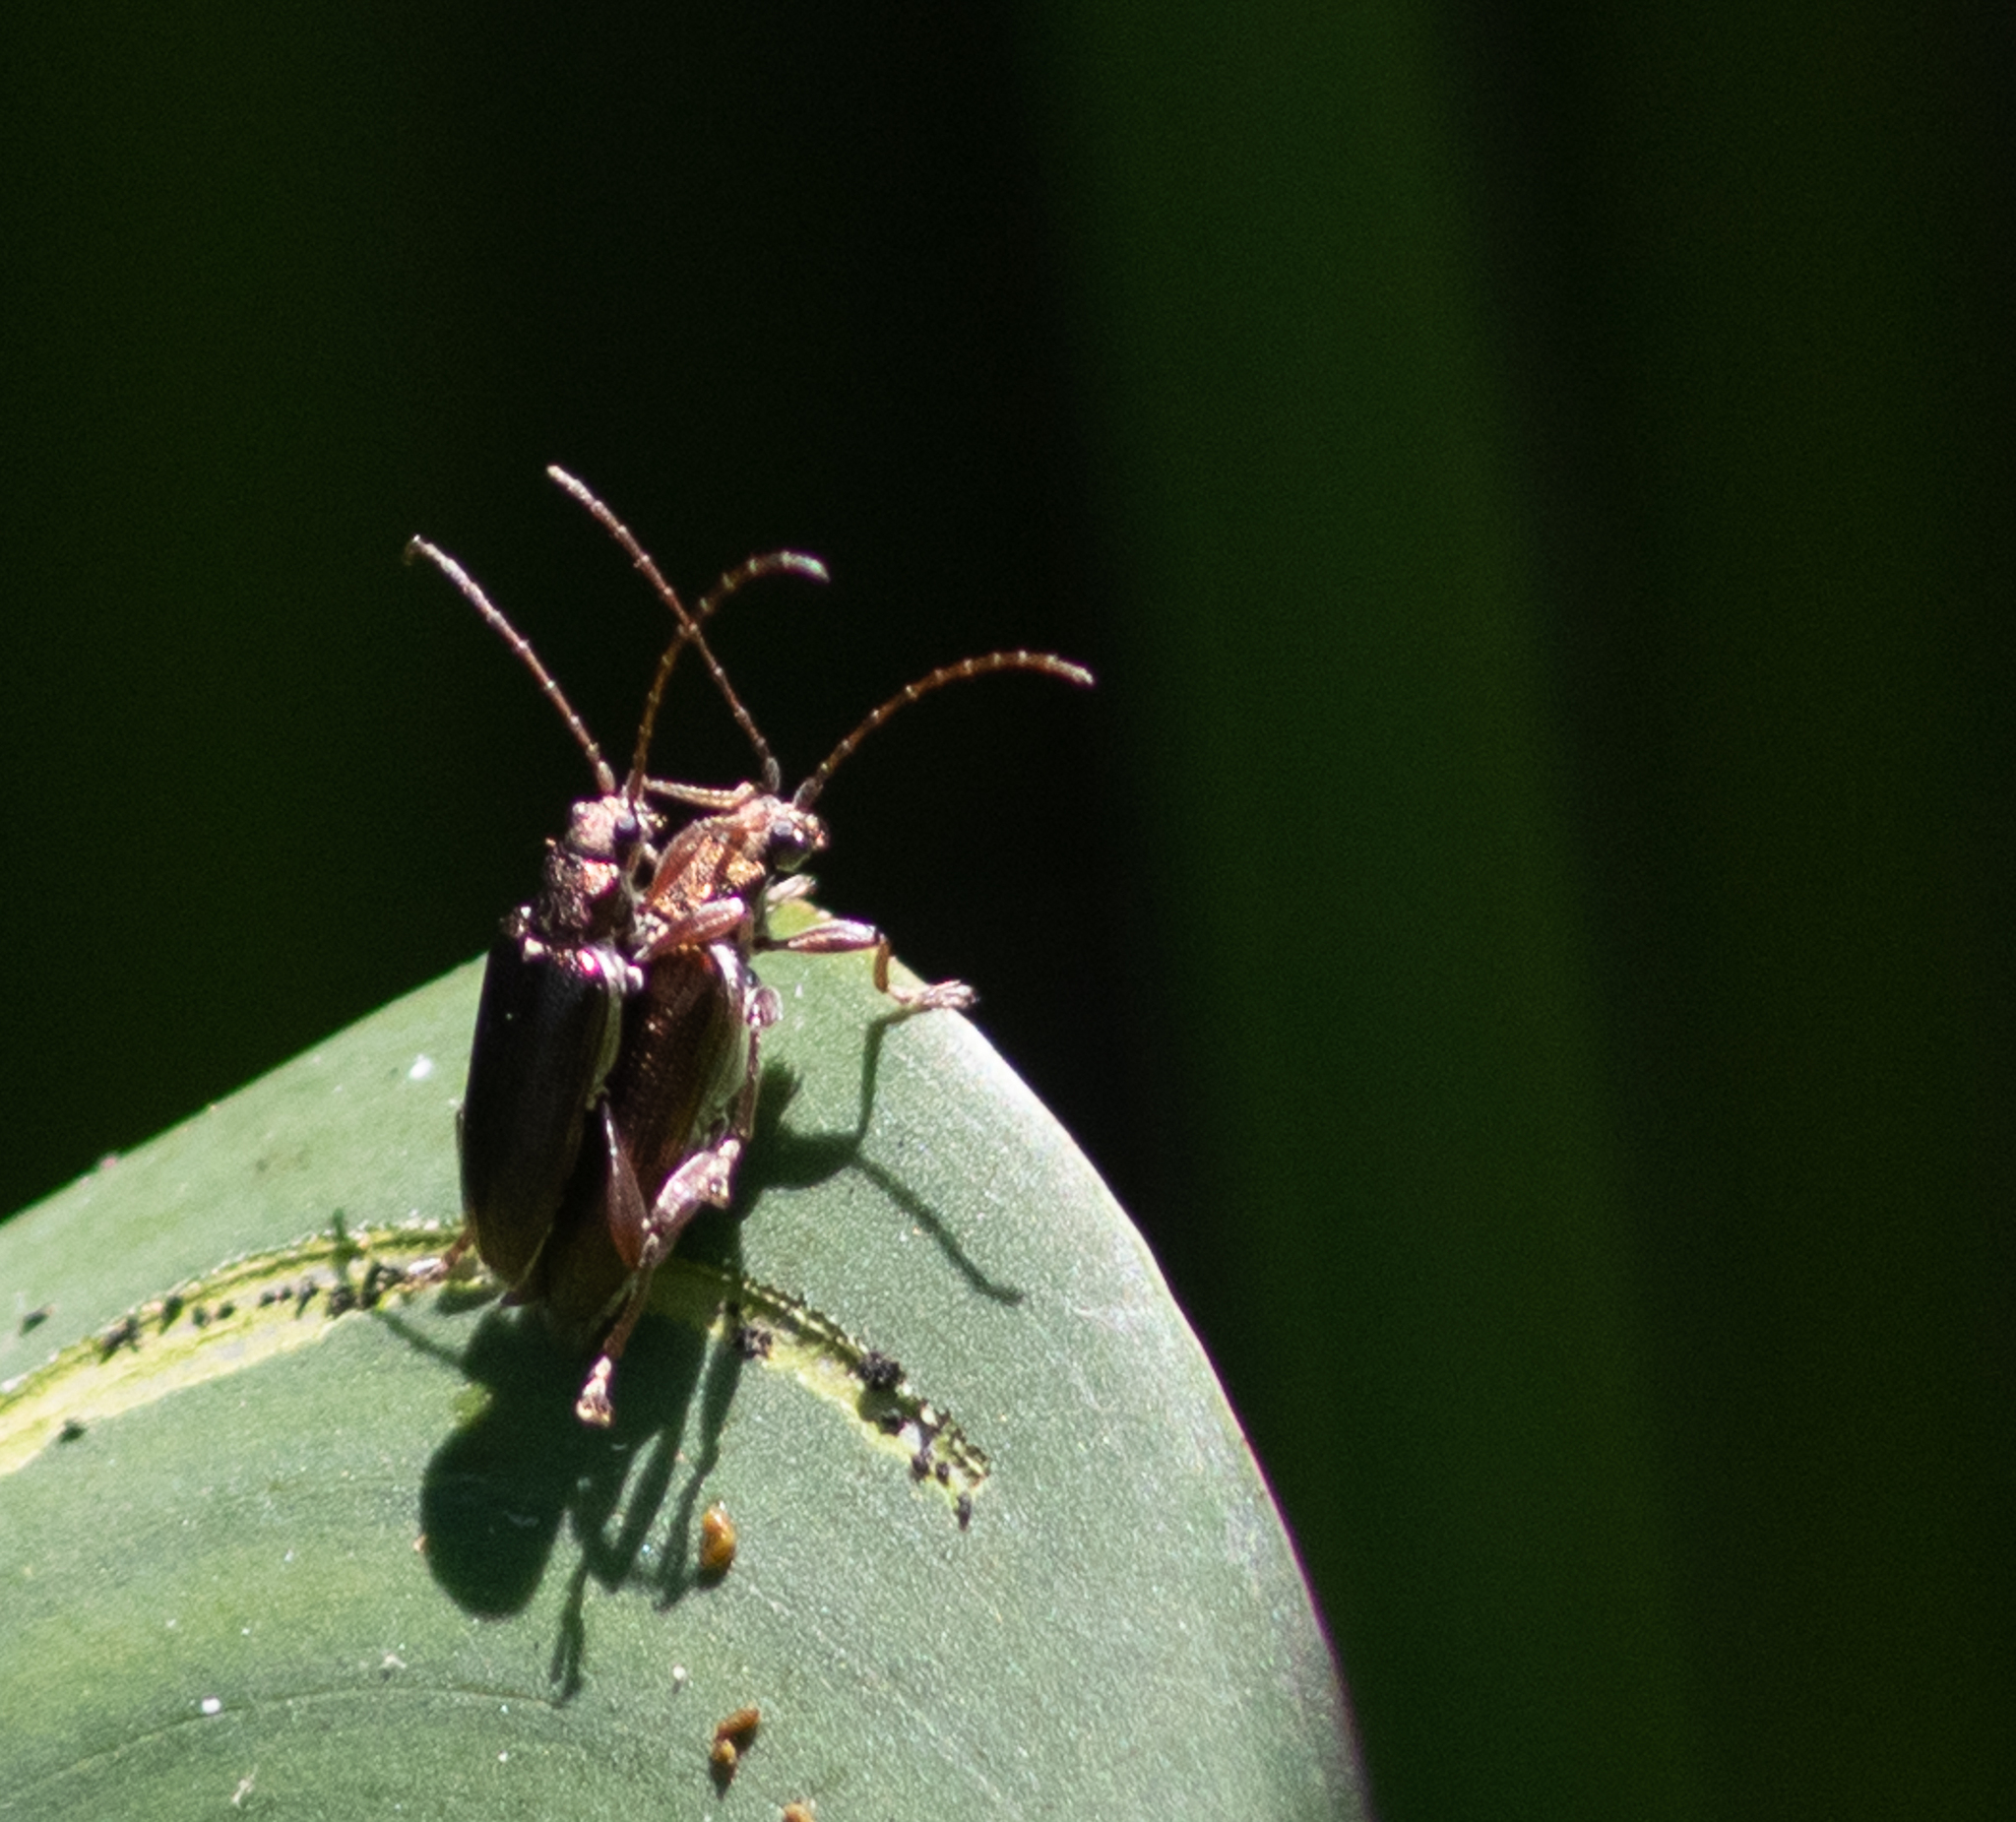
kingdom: Animalia
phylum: Arthropoda
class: Insecta
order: Coleoptera
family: Chrysomelidae
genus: Donacia
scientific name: Donacia
